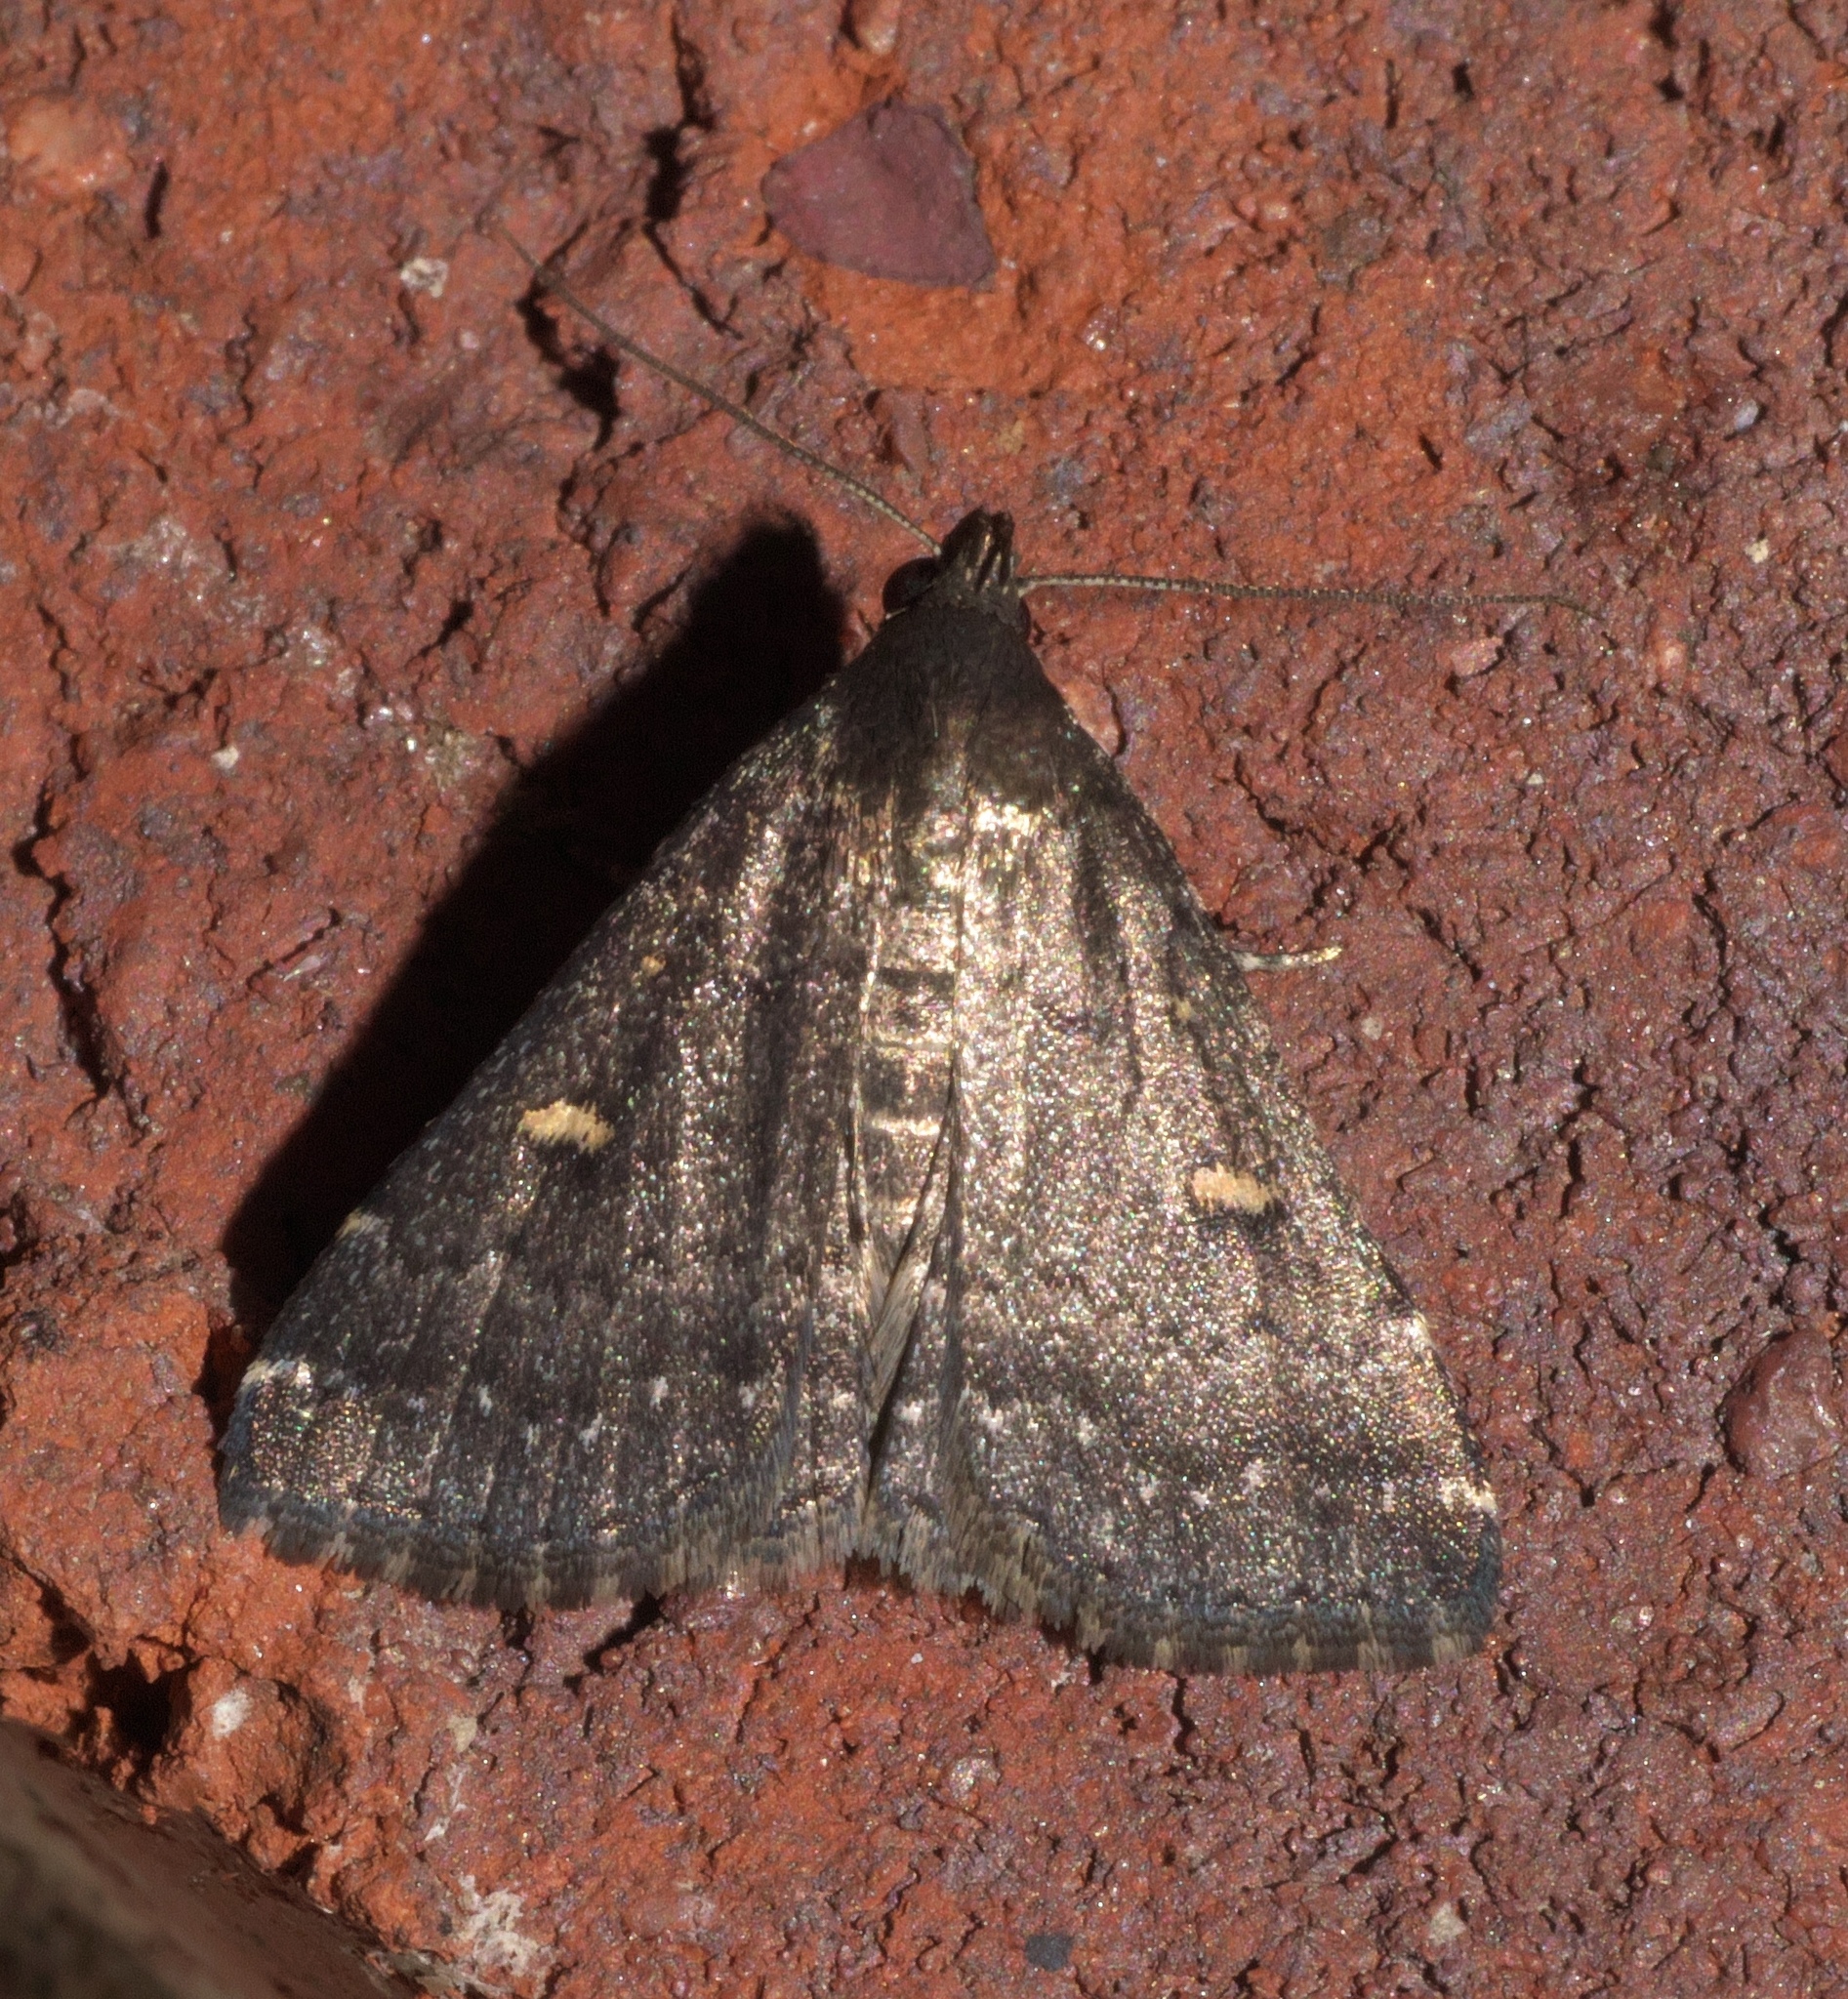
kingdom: Animalia
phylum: Arthropoda
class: Insecta
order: Lepidoptera
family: Erebidae
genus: Tetanolita
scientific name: Tetanolita mynesalis
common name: Smoky tetanolita moth
